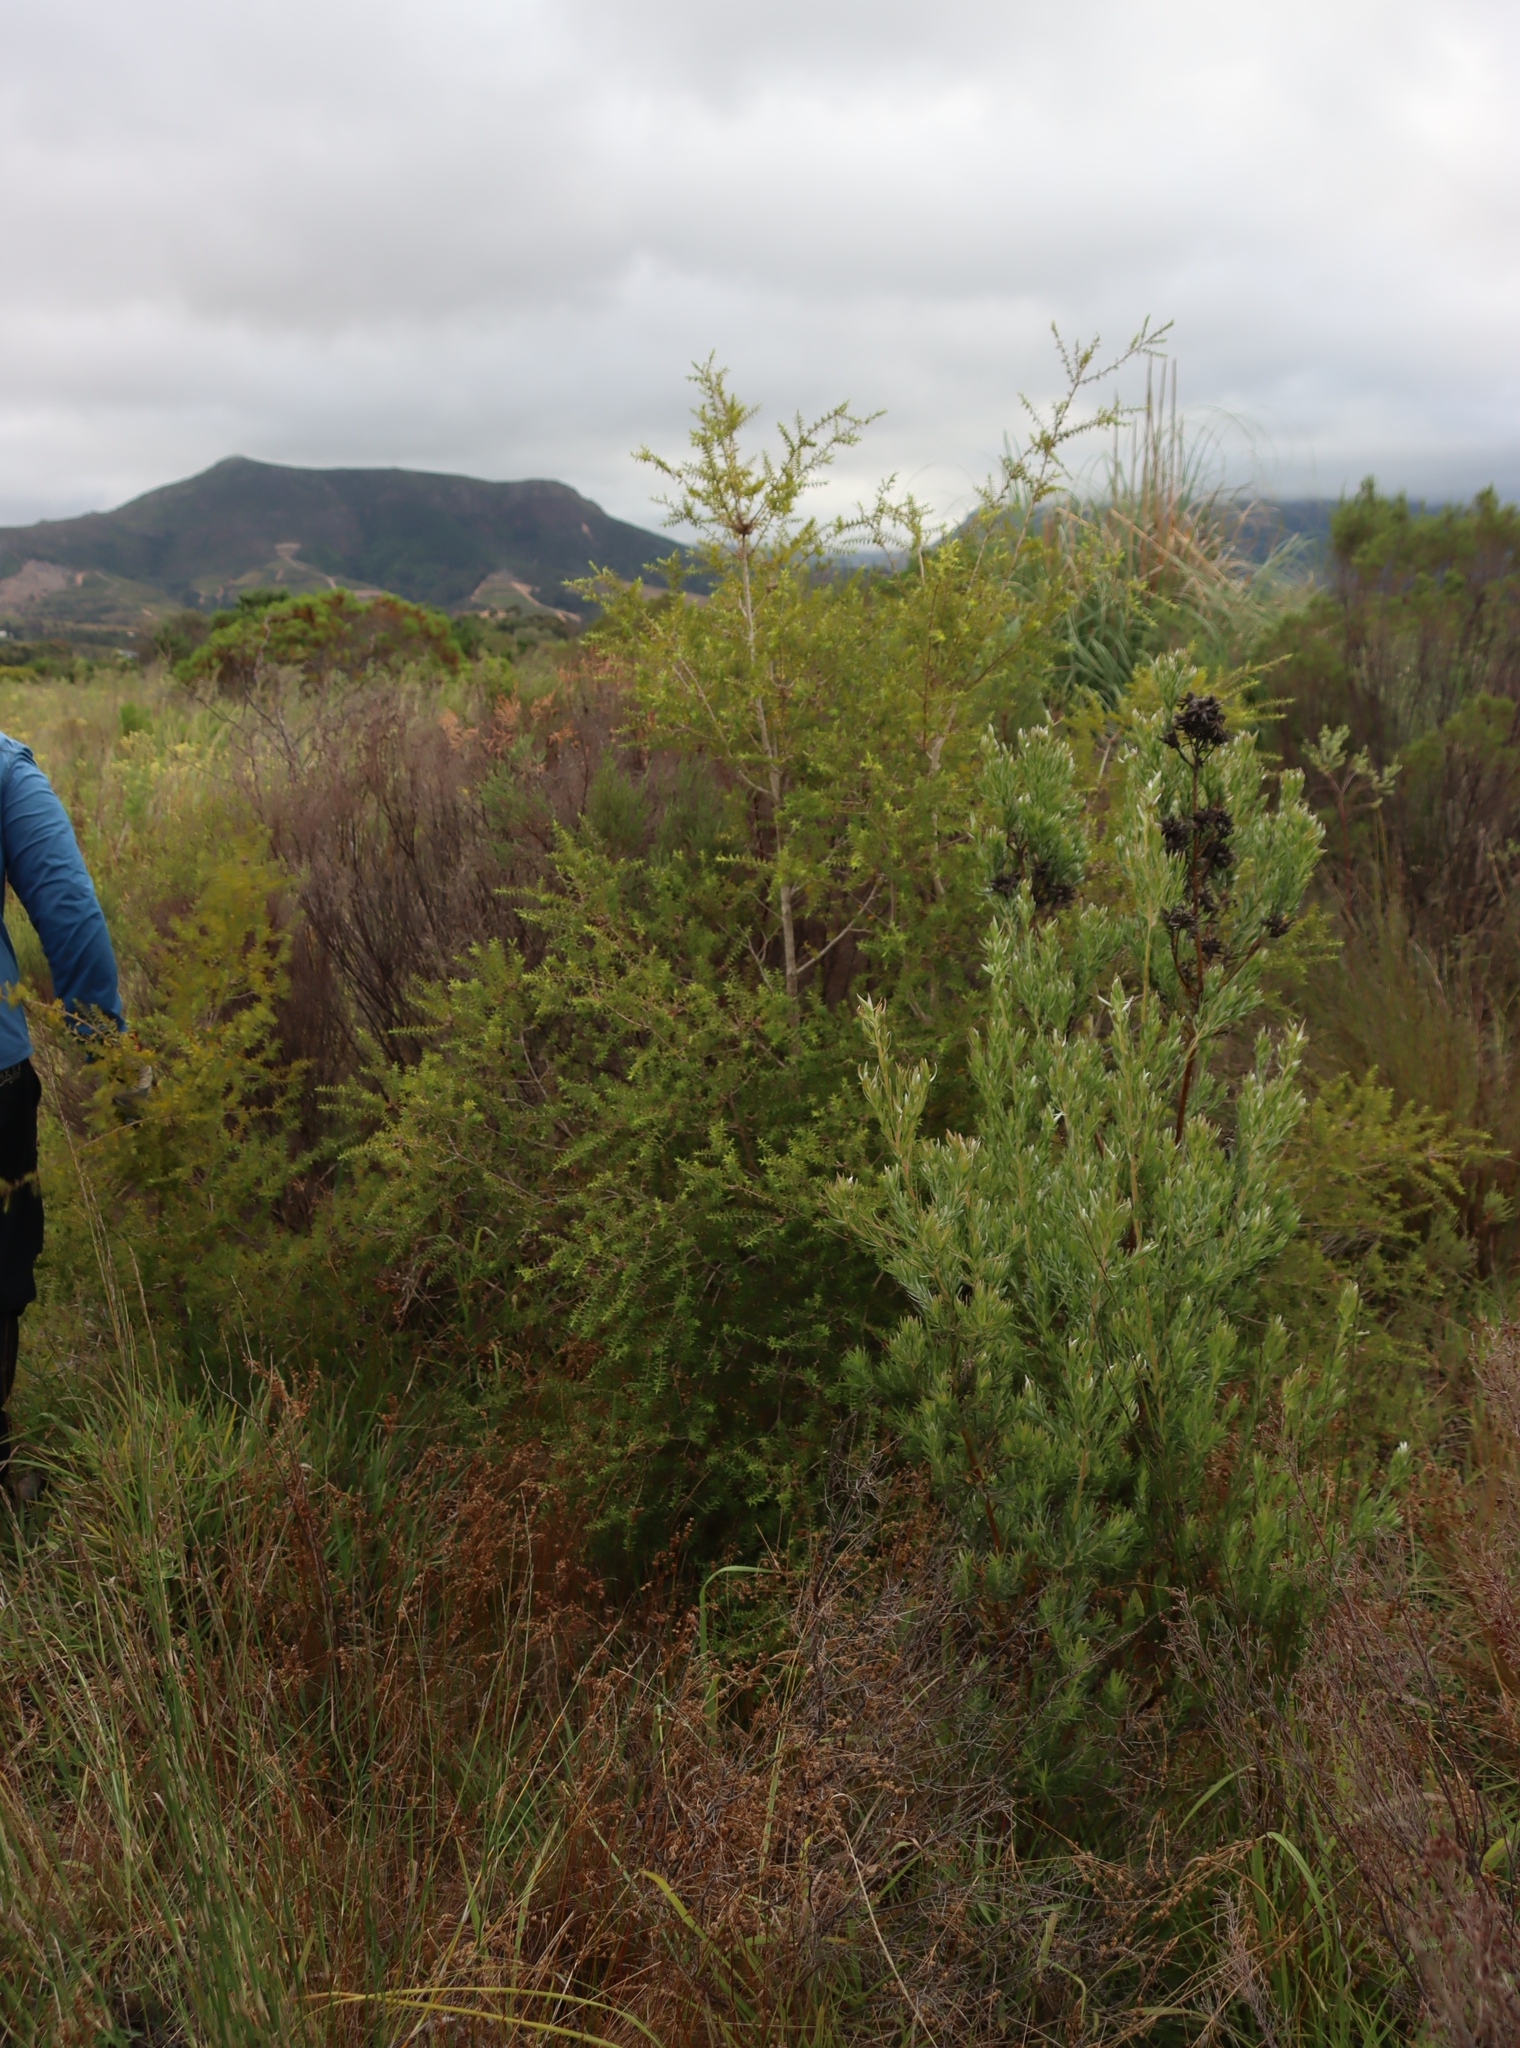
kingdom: Plantae
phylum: Tracheophyta
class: Magnoliopsida
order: Myrtales
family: Myrtaceae
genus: Melaleuca
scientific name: Melaleuca styphelioides
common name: Prickly paperbark
